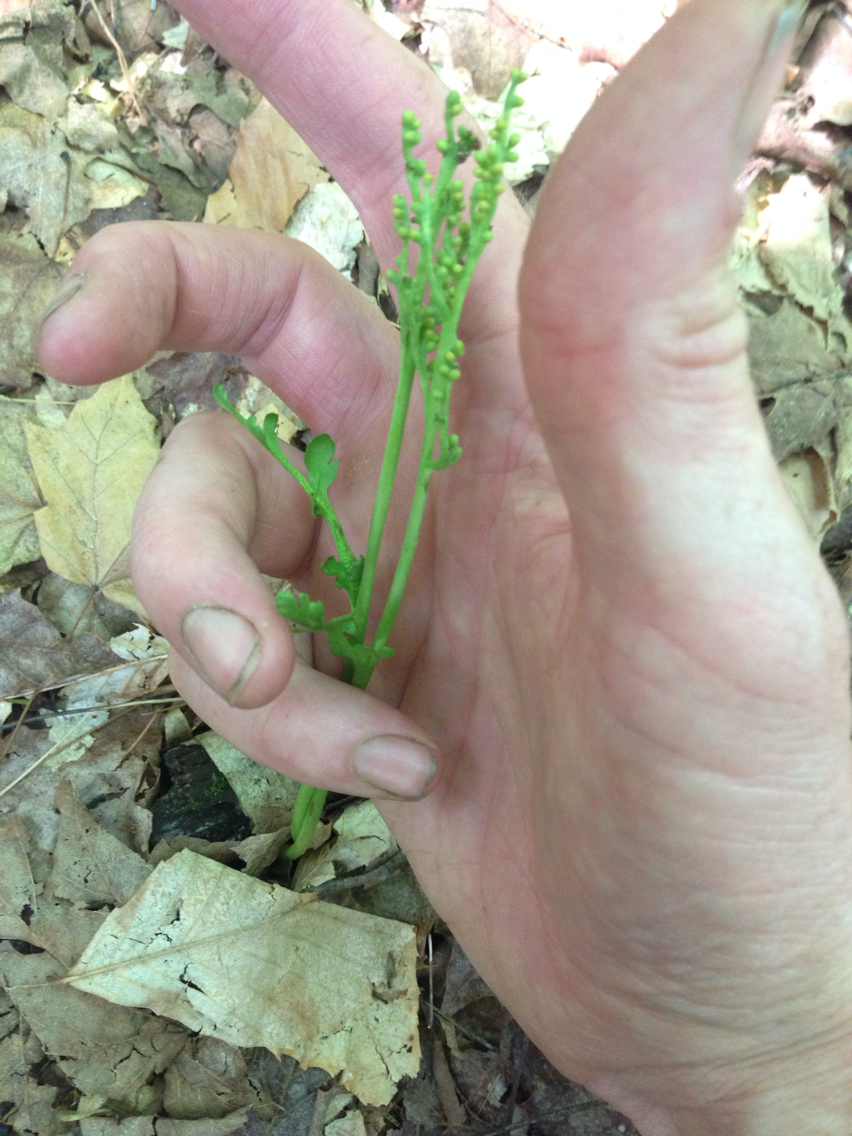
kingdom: Plantae
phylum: Tracheophyta
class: Polypodiopsida
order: Ophioglossales
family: Ophioglossaceae
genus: Botrychium
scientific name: Botrychium matricariifolium
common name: Branched moonwort
